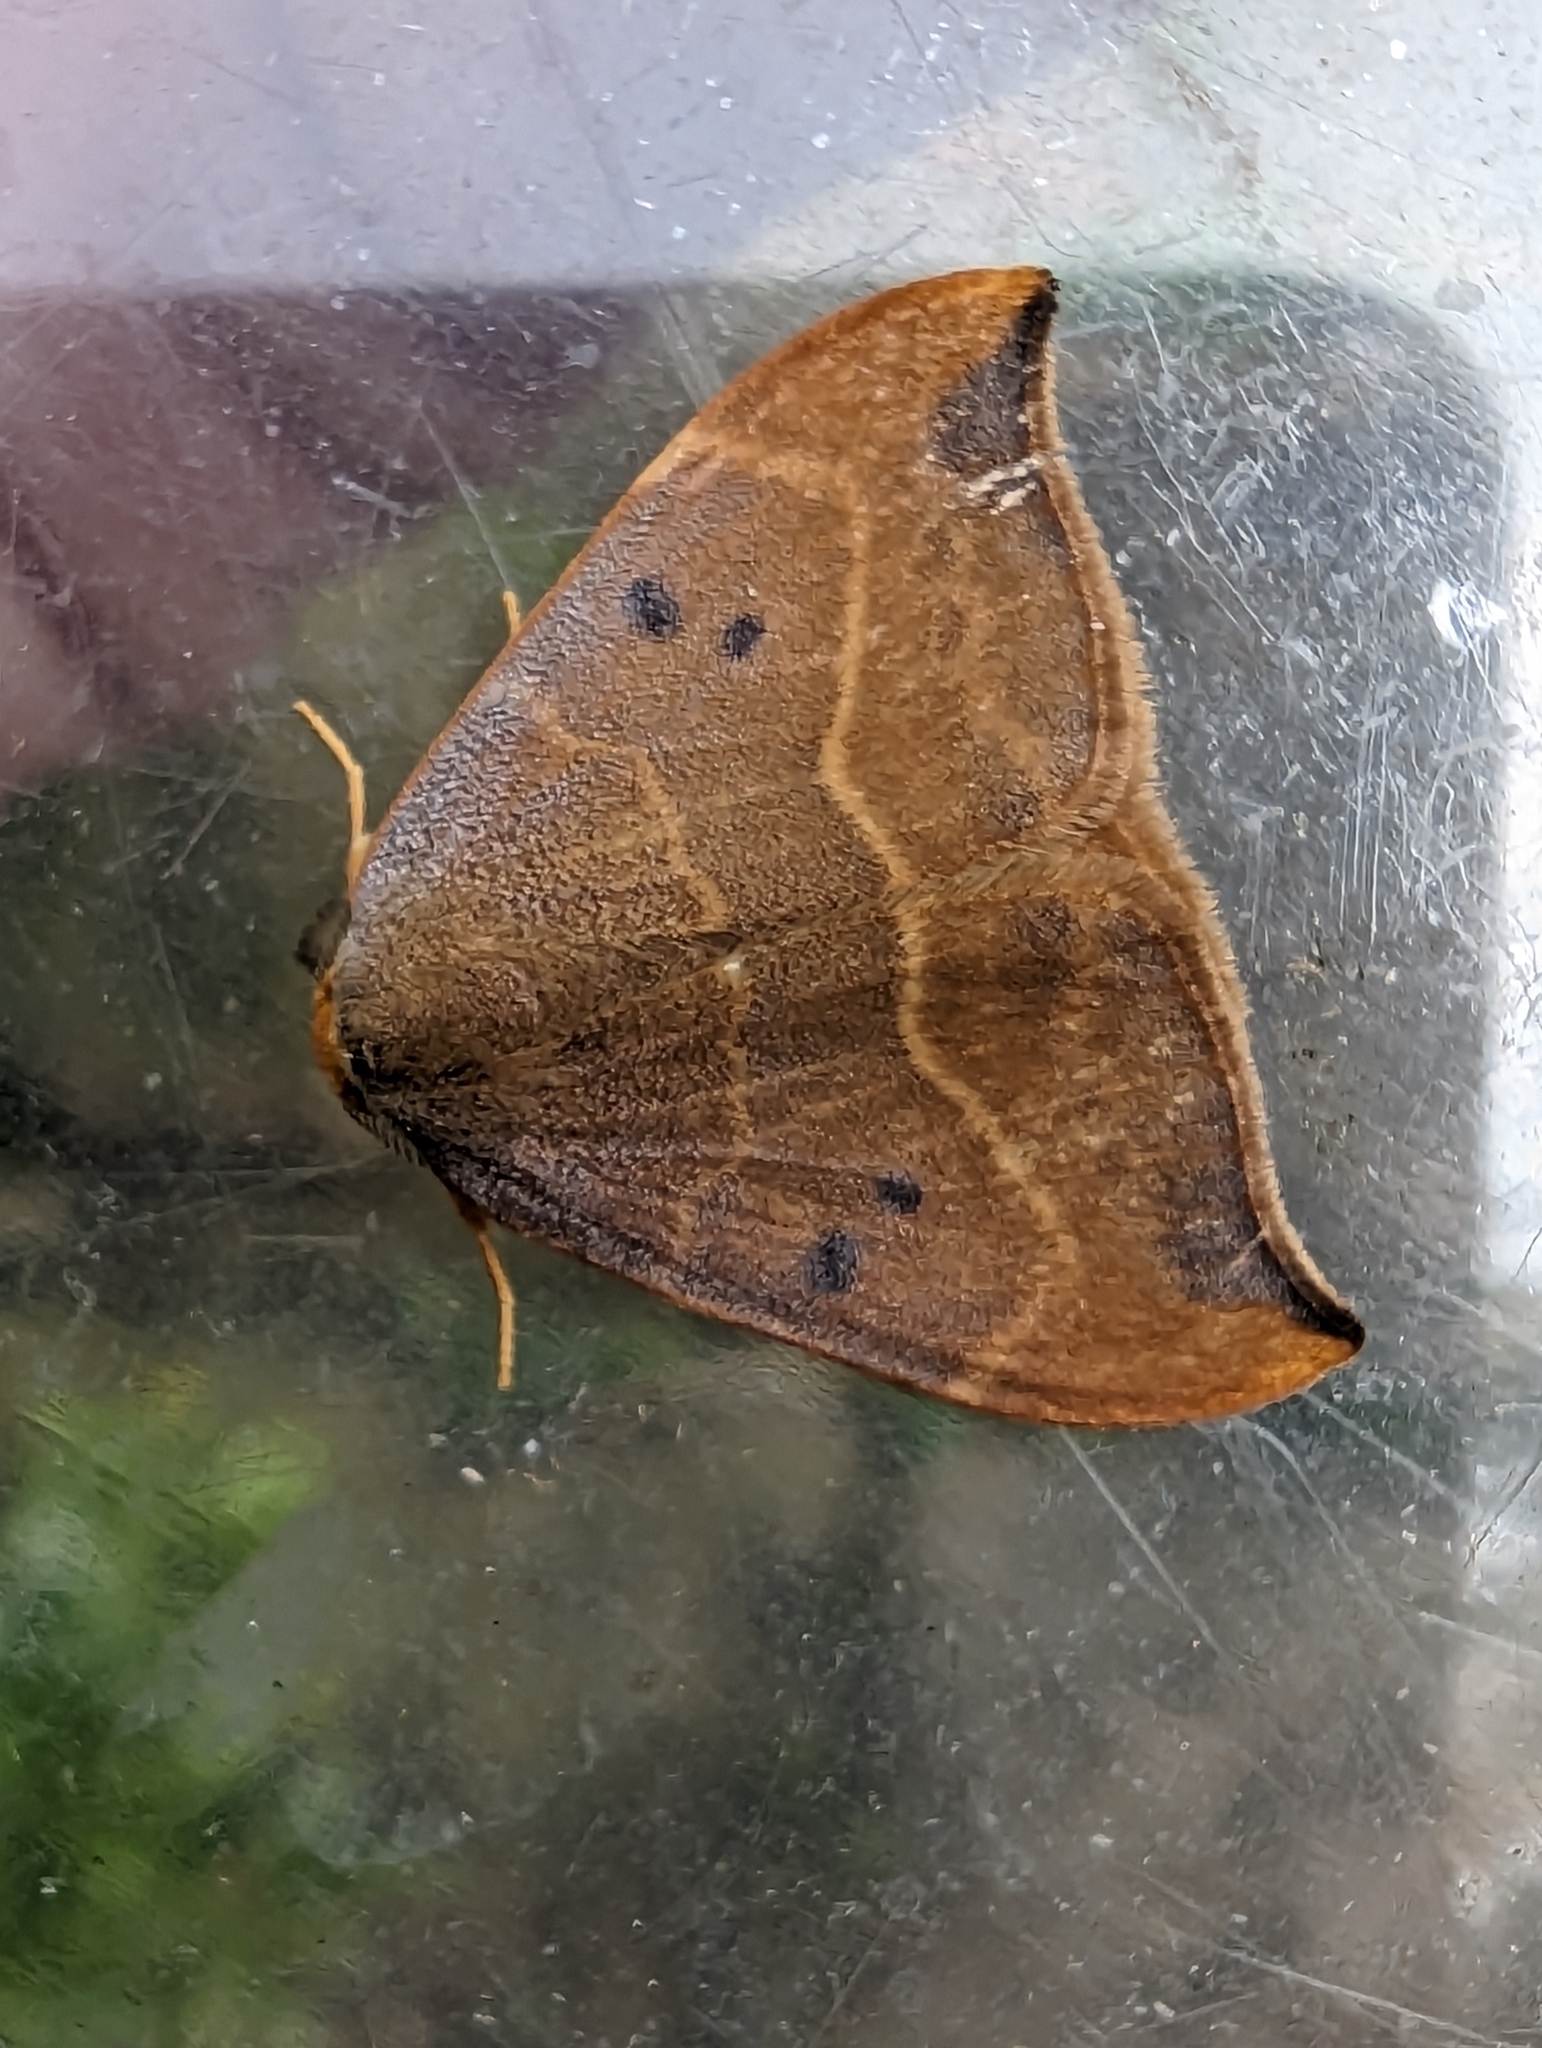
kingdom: Animalia
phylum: Arthropoda
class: Insecta
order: Lepidoptera
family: Drepanidae
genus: Watsonalla
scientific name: Watsonalla binaria
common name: Oak hook-tip
